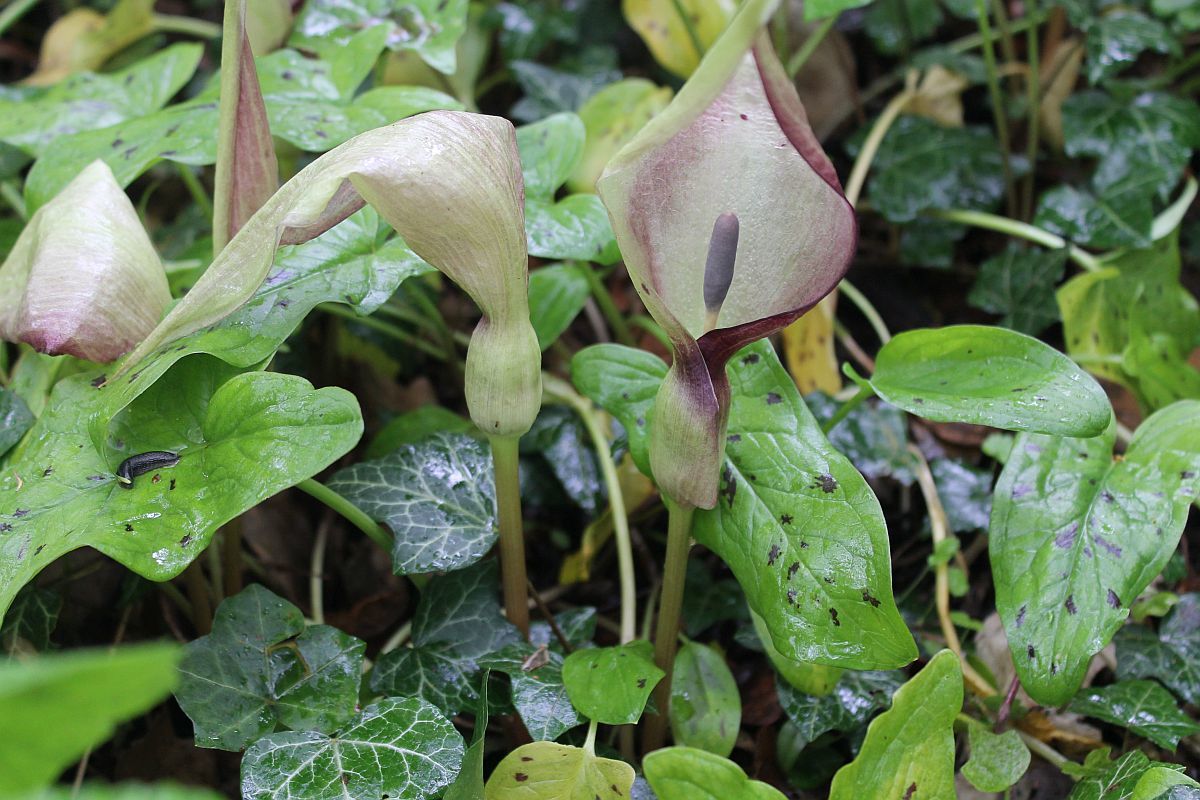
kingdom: Plantae
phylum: Tracheophyta
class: Liliopsida
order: Alismatales
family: Araceae
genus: Arum
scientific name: Arum maculatum
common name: Lords-and-ladies
